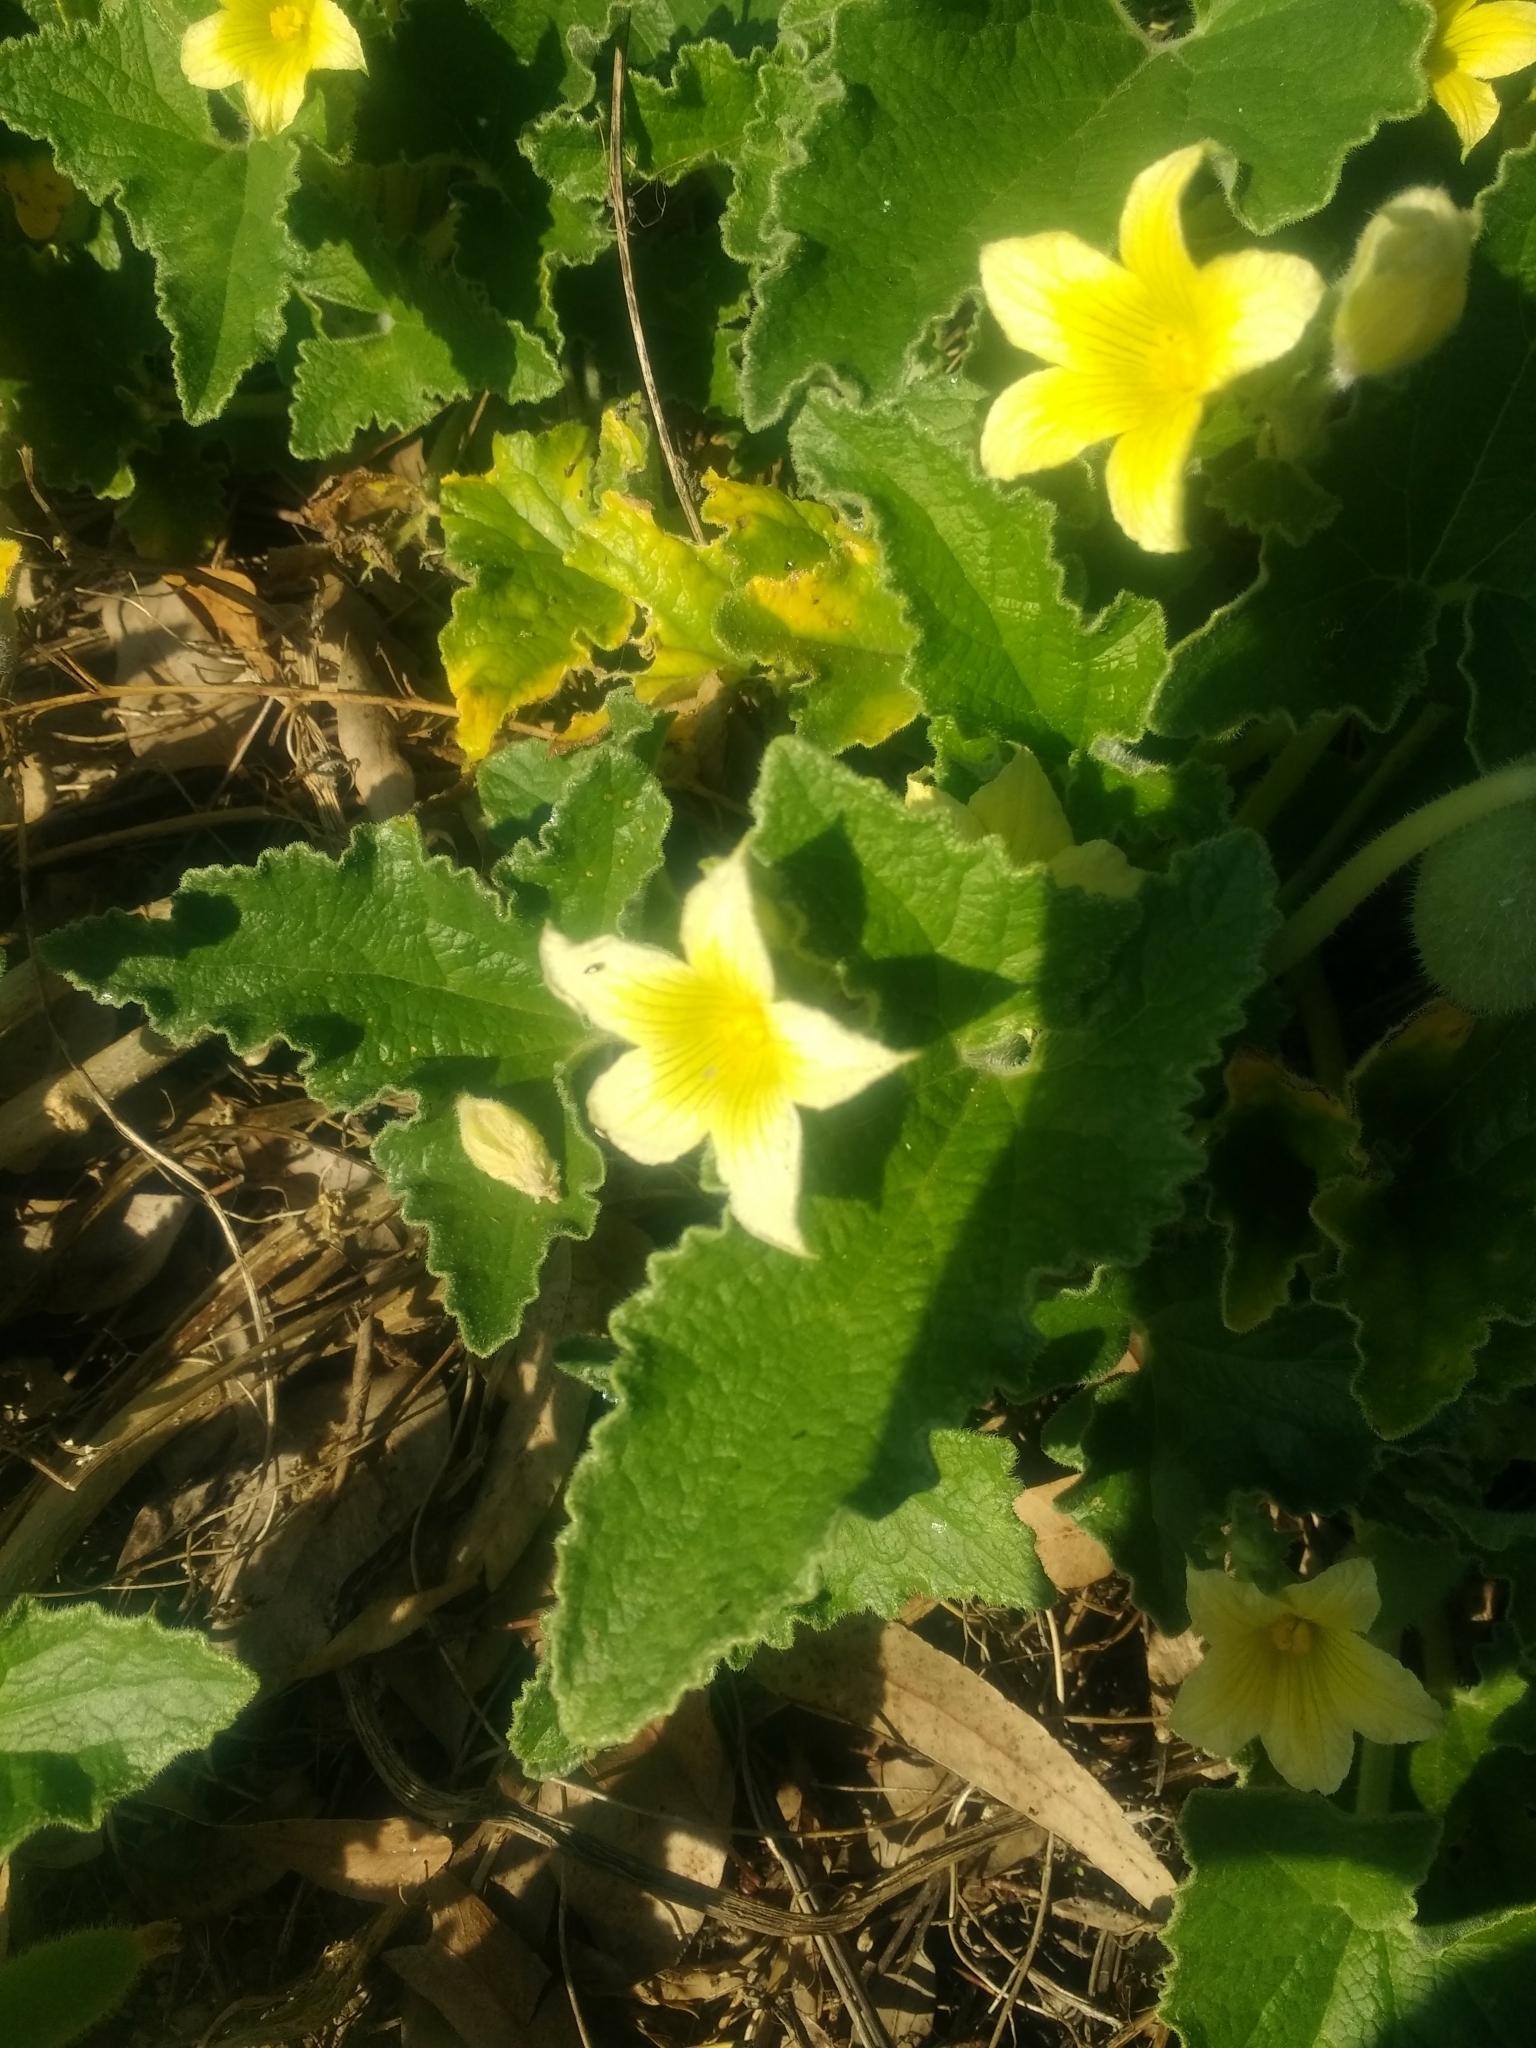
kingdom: Plantae
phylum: Tracheophyta
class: Magnoliopsida
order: Cucurbitales
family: Cucurbitaceae
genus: Ecballium
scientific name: Ecballium elaterium
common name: Squirting cucumber
